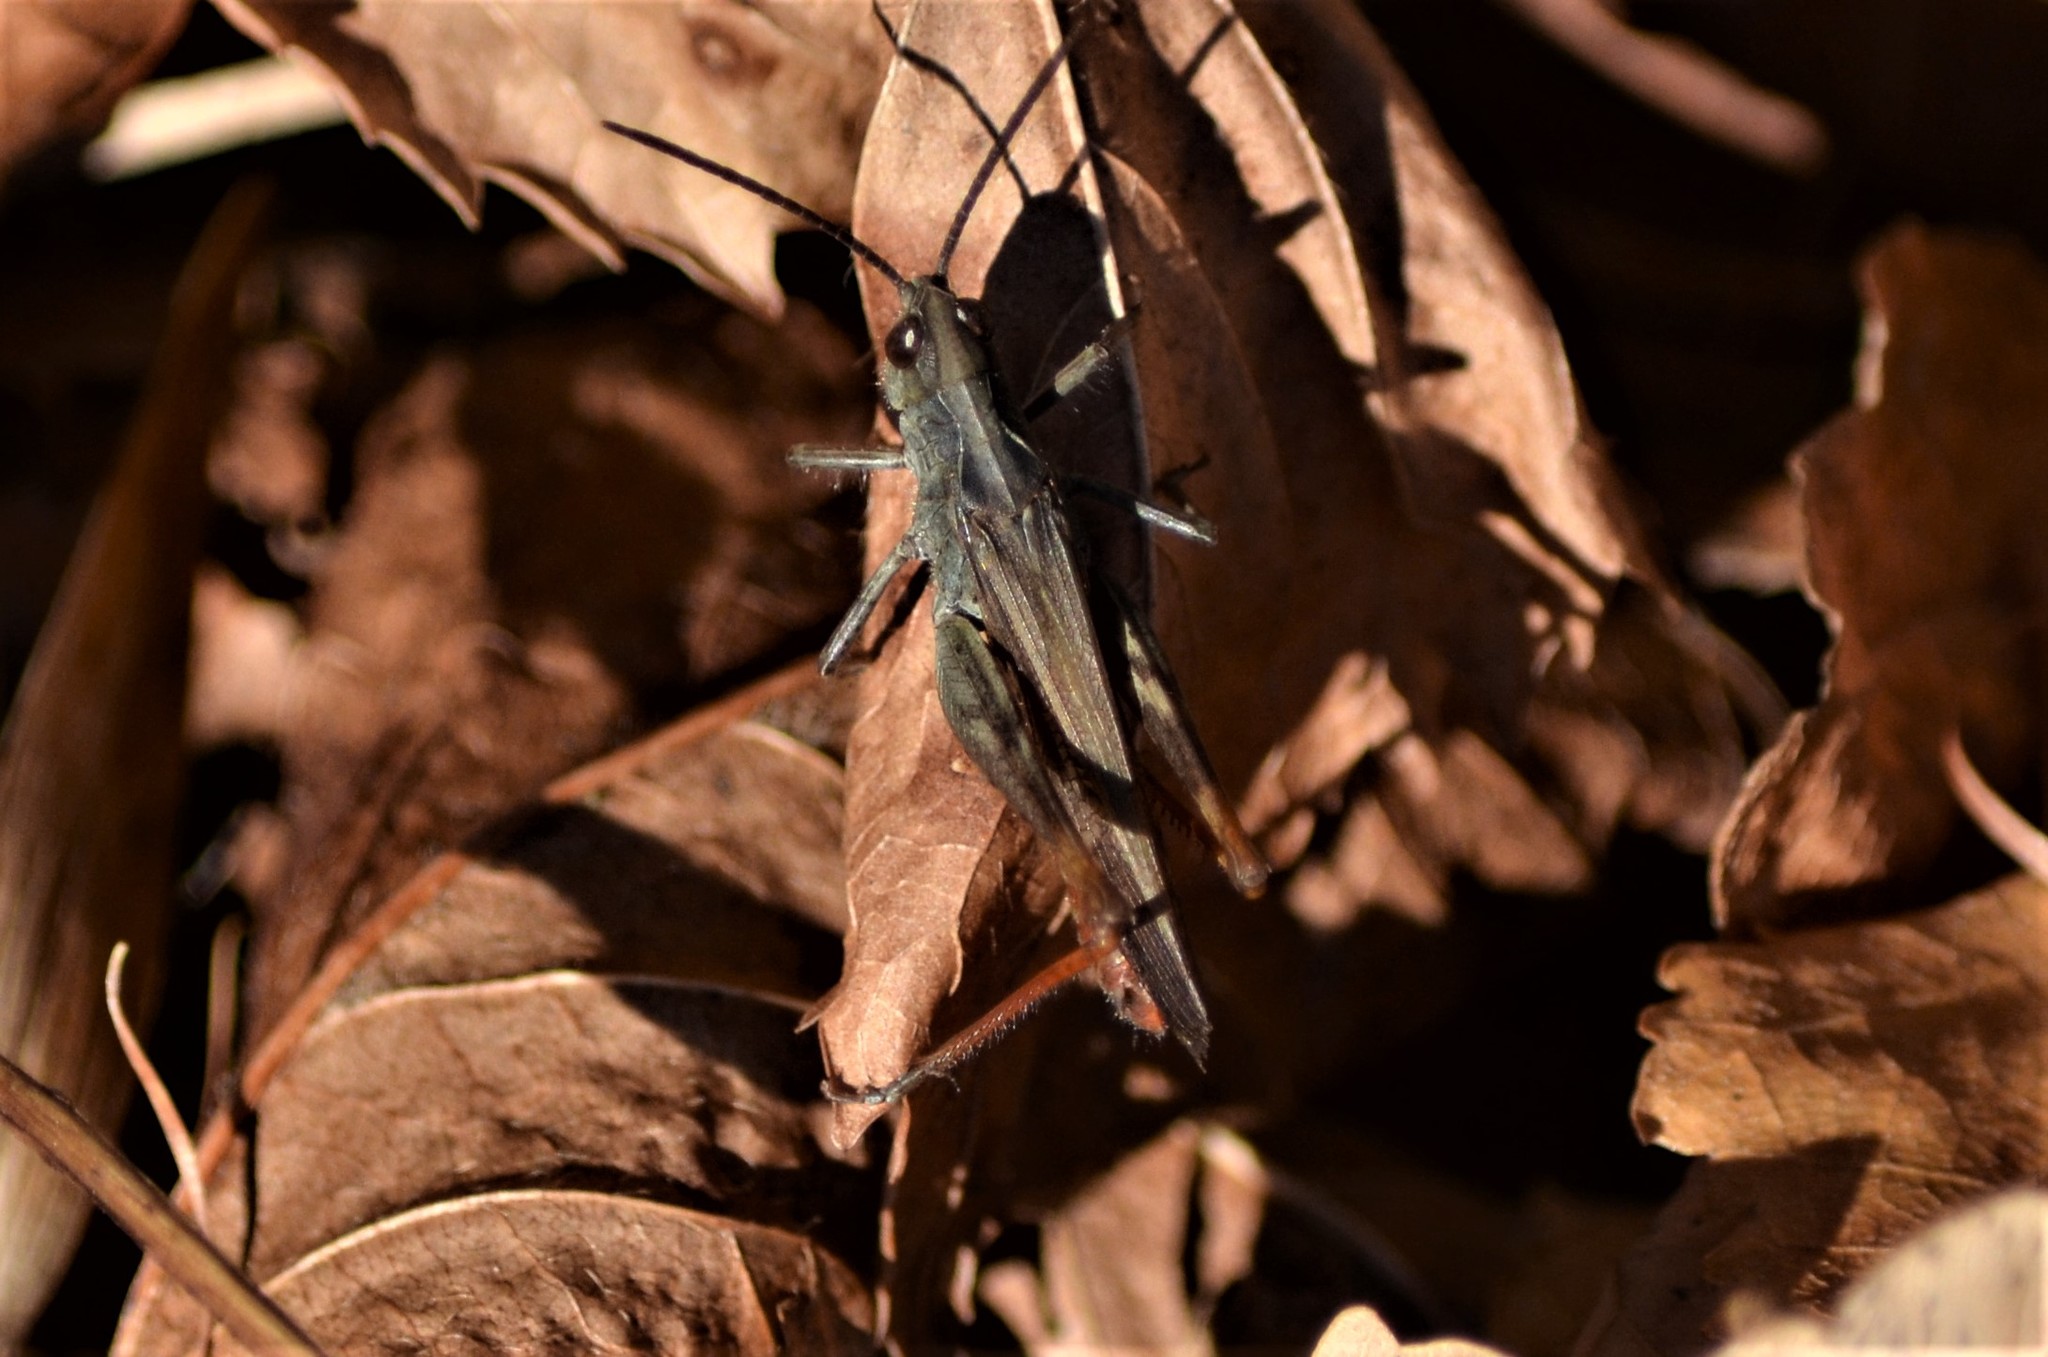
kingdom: Animalia
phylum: Arthropoda
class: Insecta
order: Orthoptera
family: Acrididae
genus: Chorthippus
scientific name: Chorthippus biguttulus
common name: Bow-winged grasshopper
